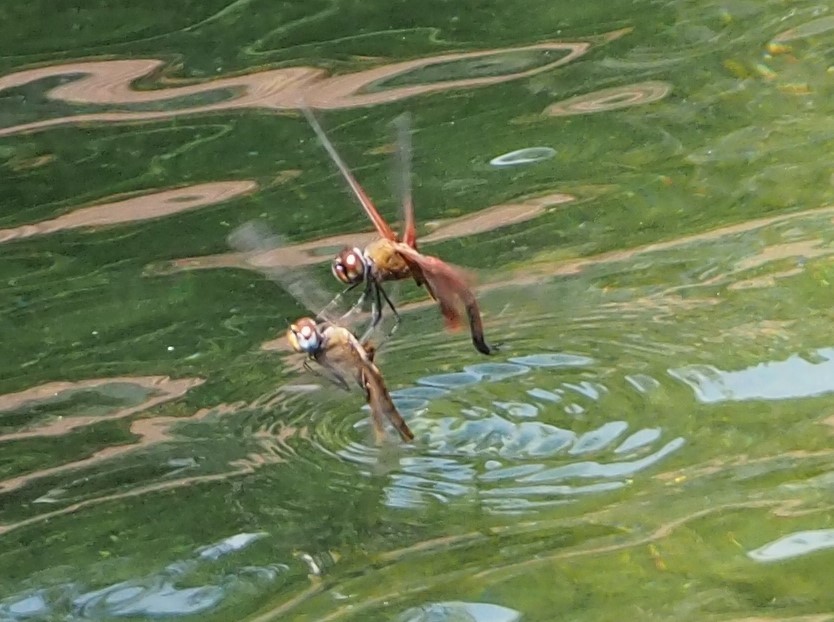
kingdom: Animalia
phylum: Arthropoda
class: Insecta
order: Odonata
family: Libellulidae
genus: Tramea
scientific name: Tramea virginia
